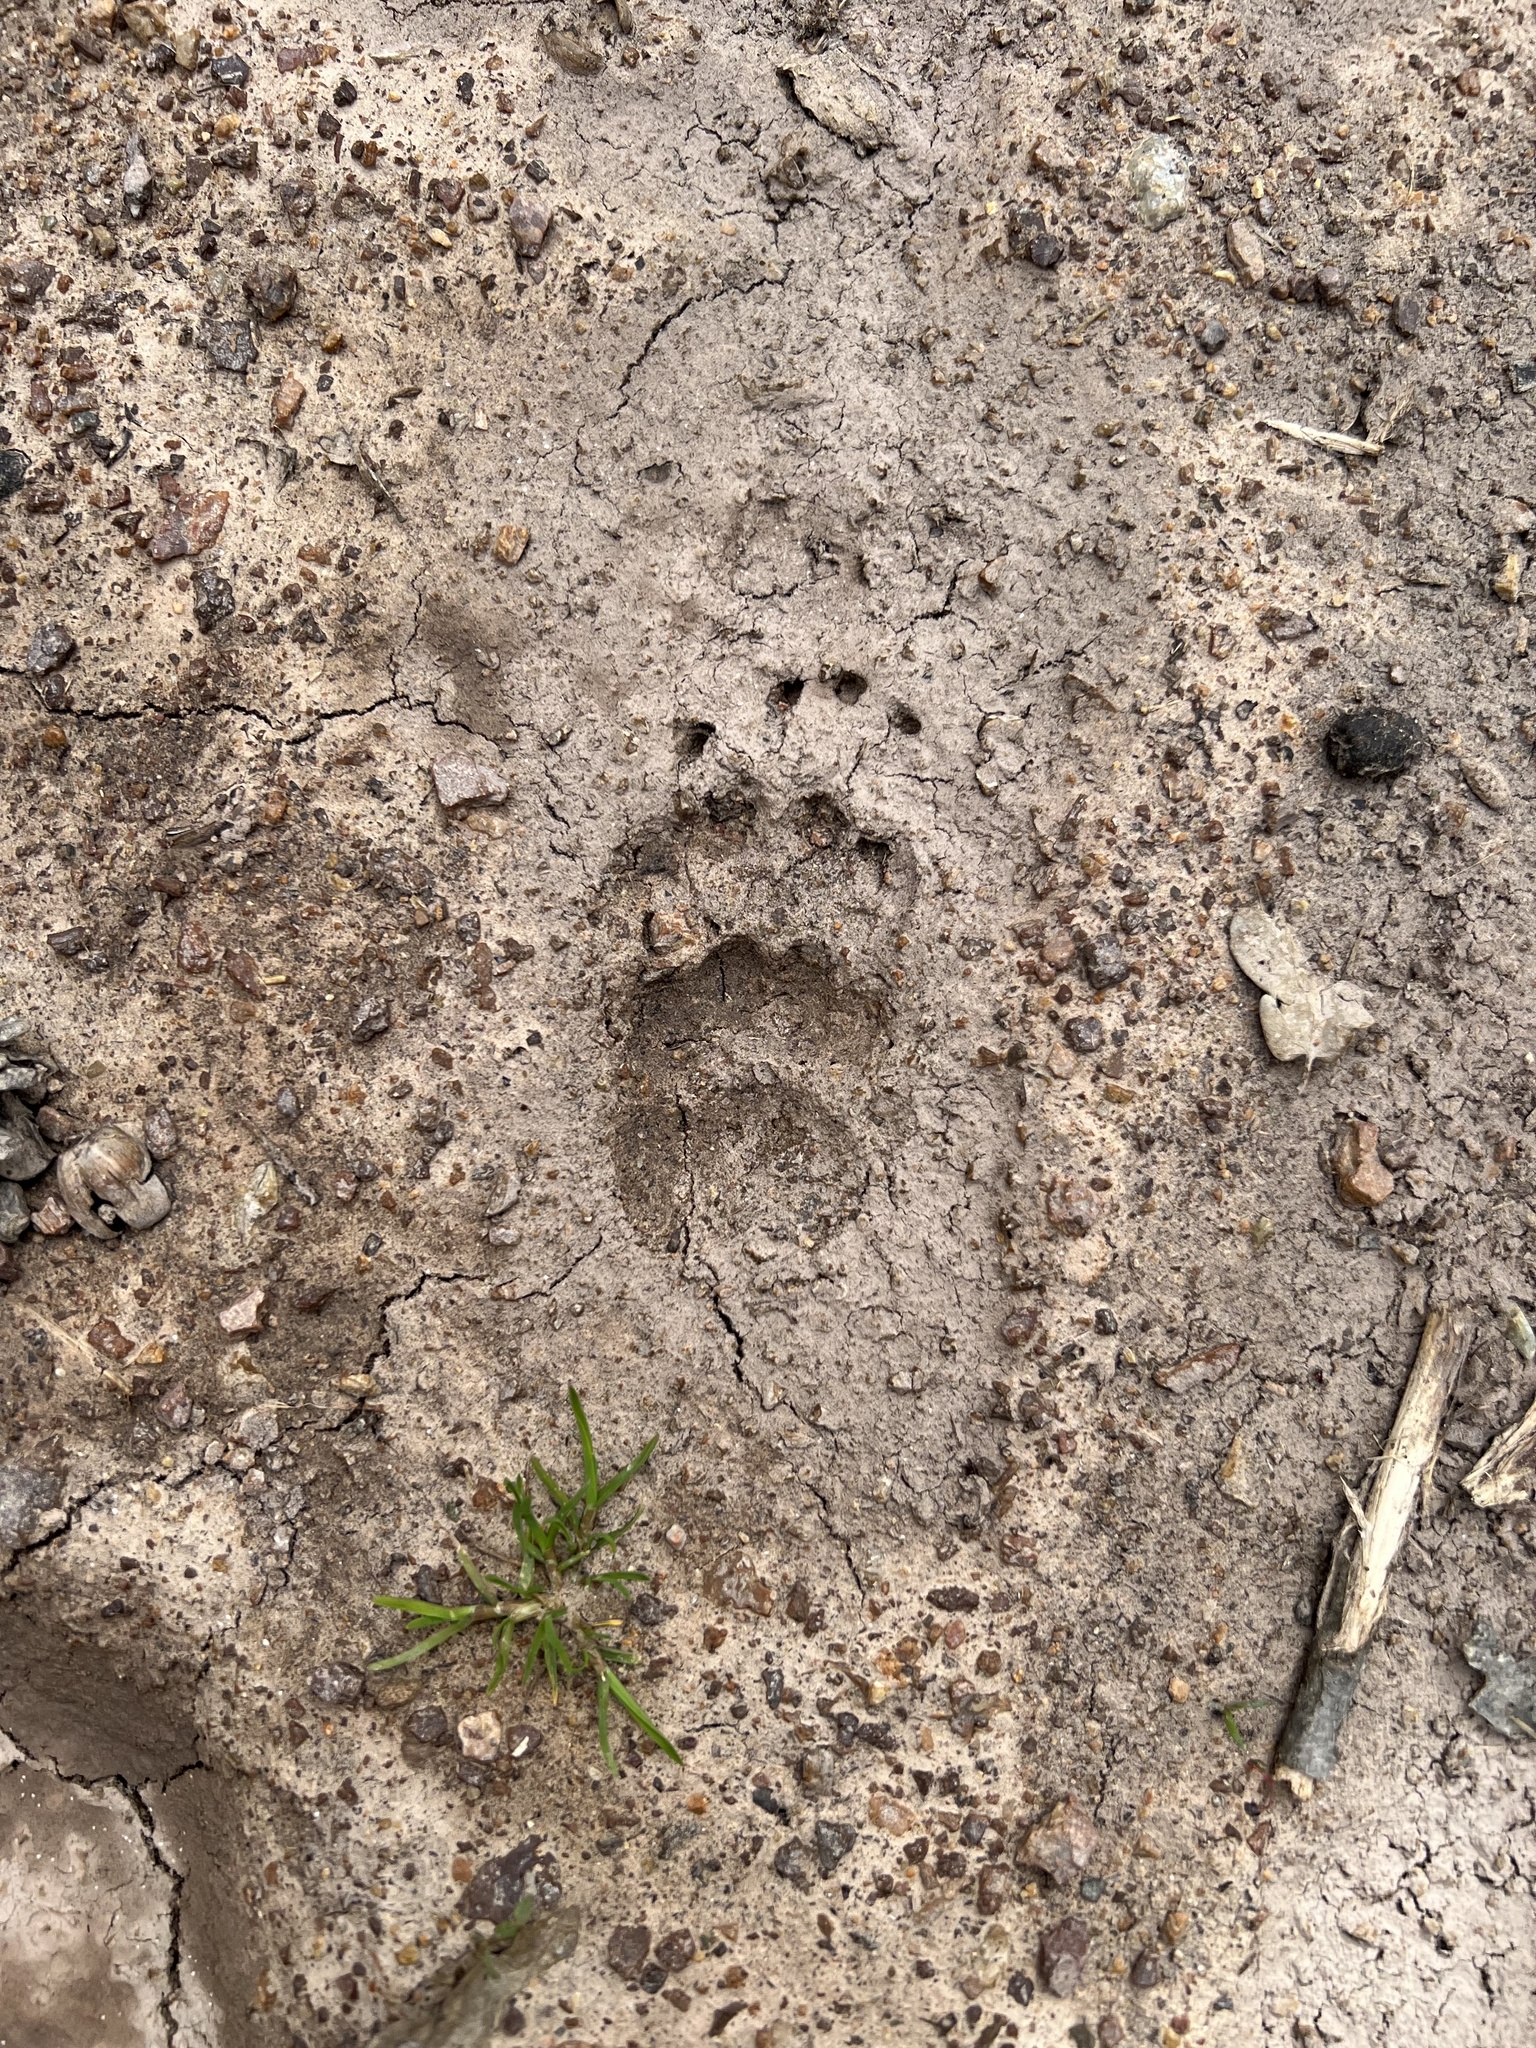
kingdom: Animalia
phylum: Chordata
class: Mammalia
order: Carnivora
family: Mustelidae
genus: Meles
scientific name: Meles meles
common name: Eurasian badger
